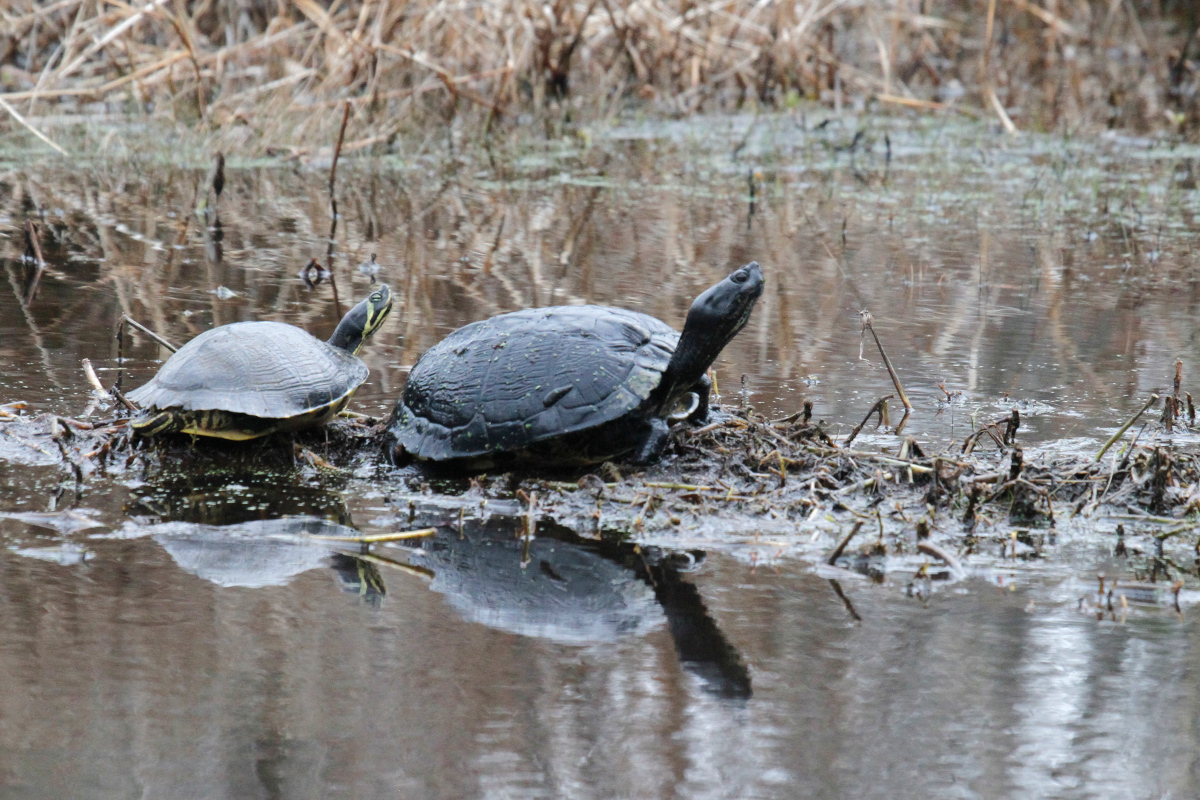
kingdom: Animalia
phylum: Chordata
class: Testudines
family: Emydidae
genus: Trachemys
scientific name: Trachemys scripta
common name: Slider
